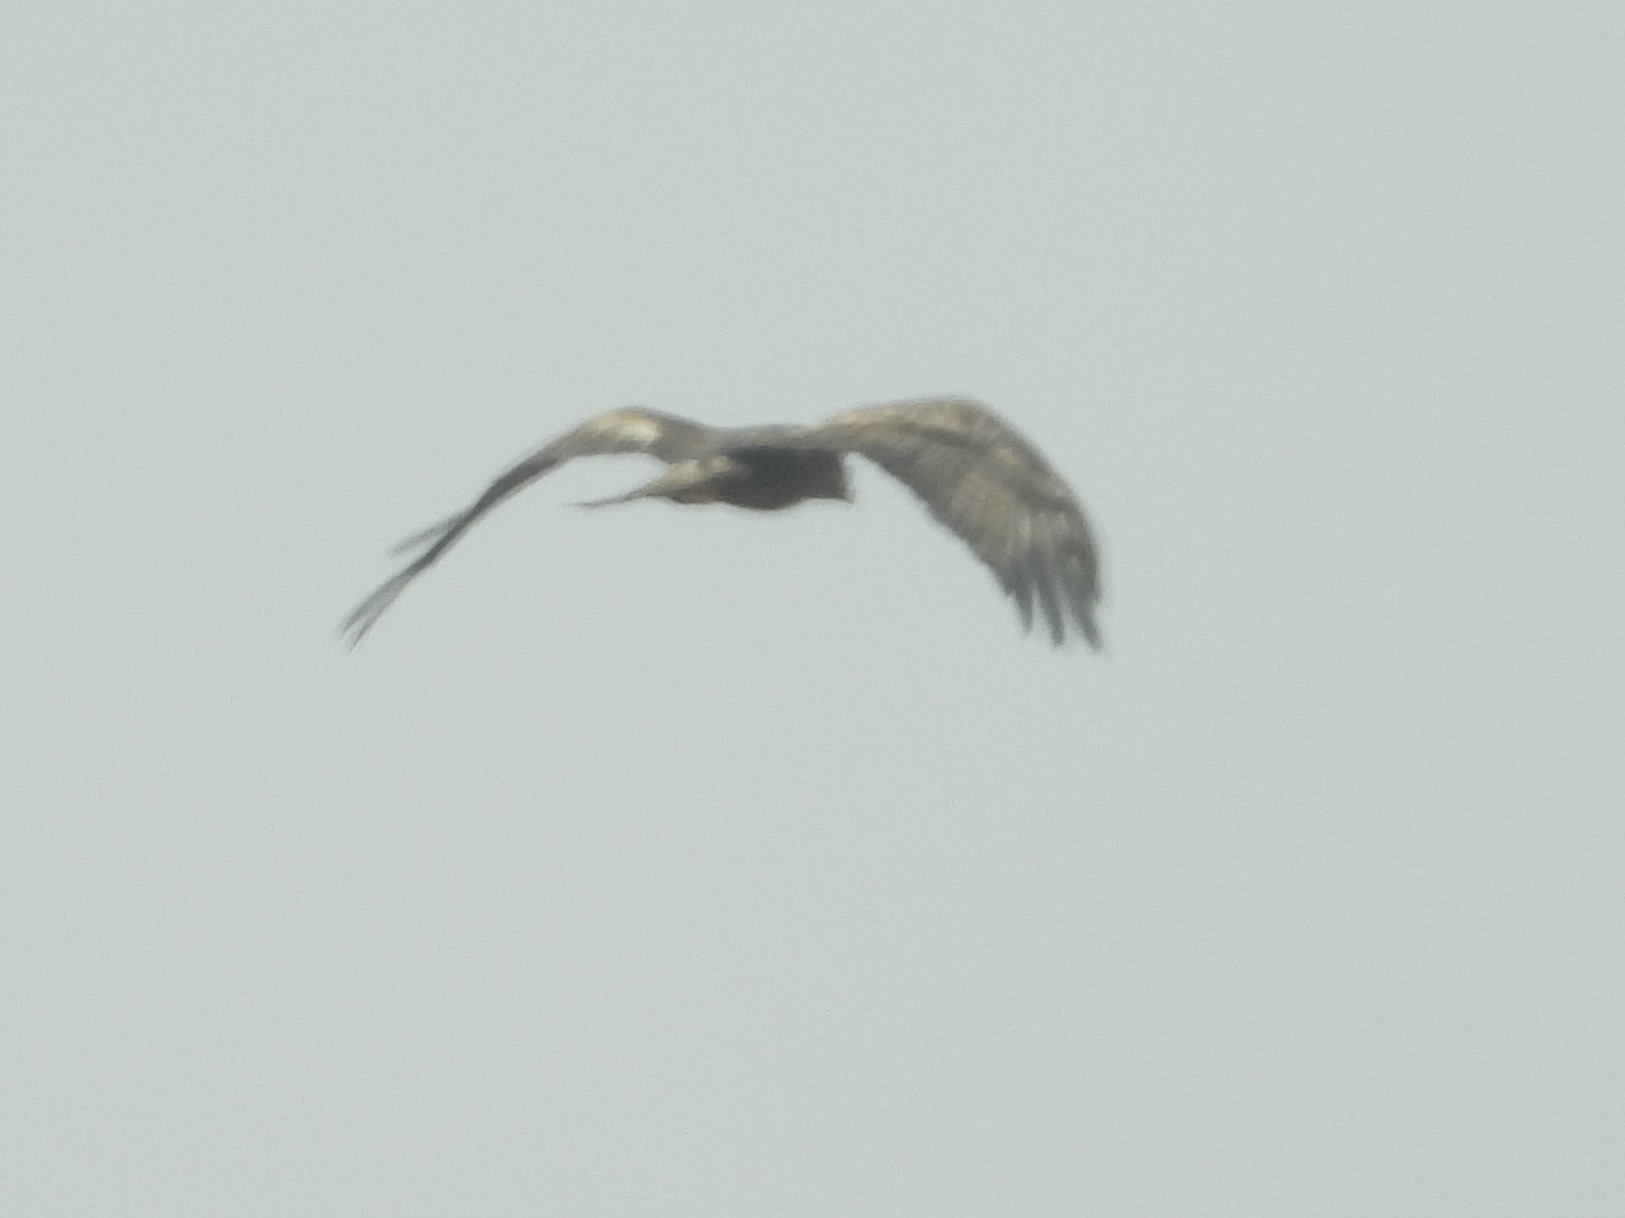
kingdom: Animalia
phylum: Chordata
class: Aves
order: Accipitriformes
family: Accipitridae
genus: Aquila
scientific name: Aquila chrysaetos
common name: Golden eagle
